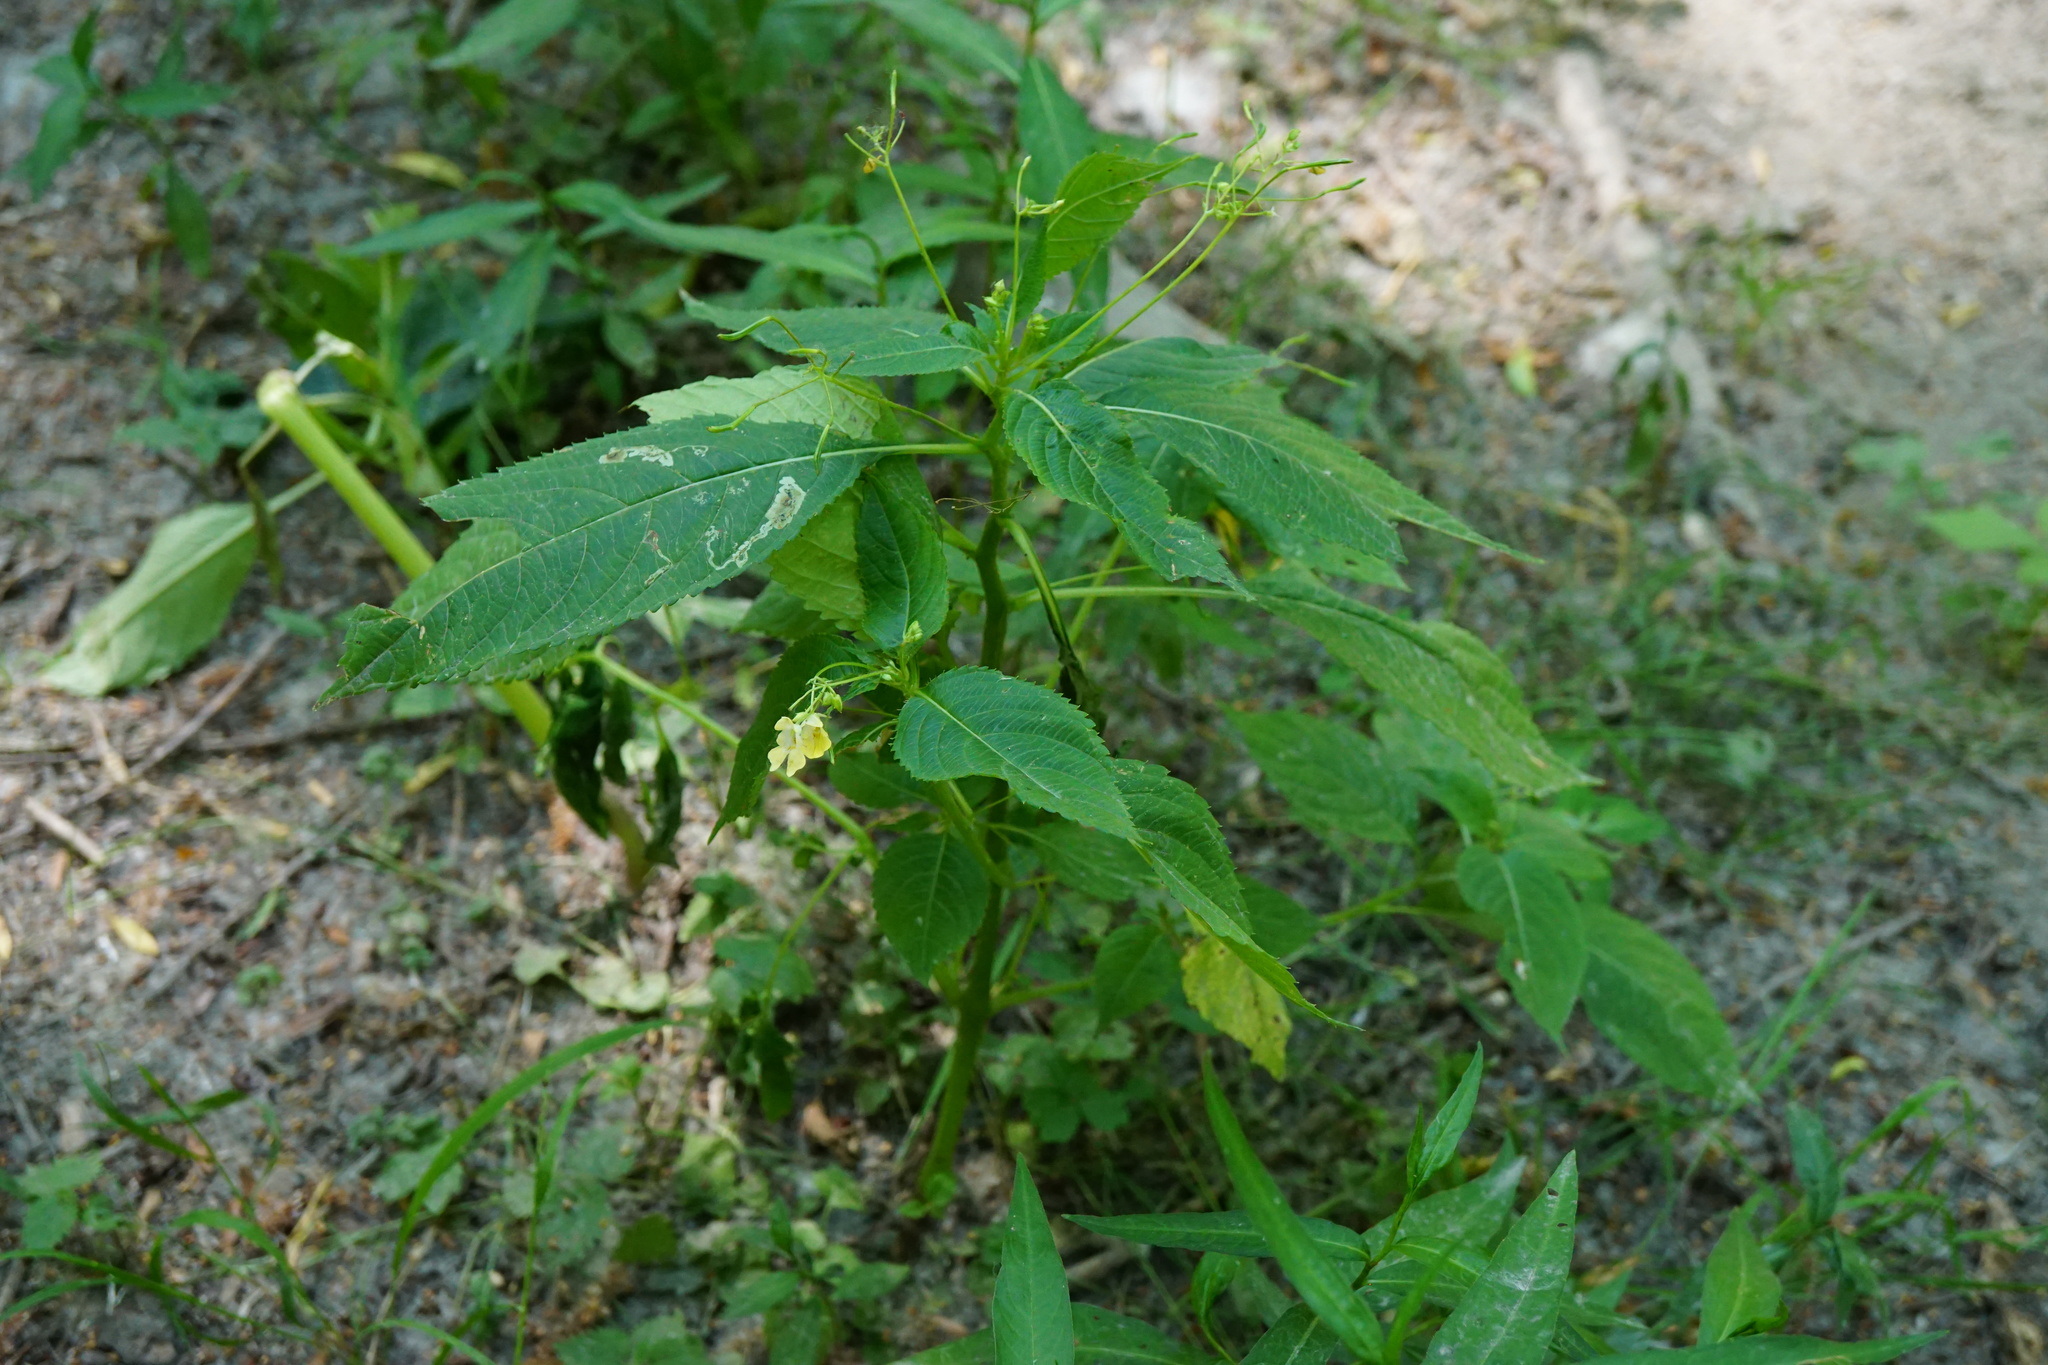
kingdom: Plantae
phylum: Tracheophyta
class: Magnoliopsida
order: Ericales
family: Balsaminaceae
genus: Impatiens
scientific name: Impatiens parviflora
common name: Small balsam
